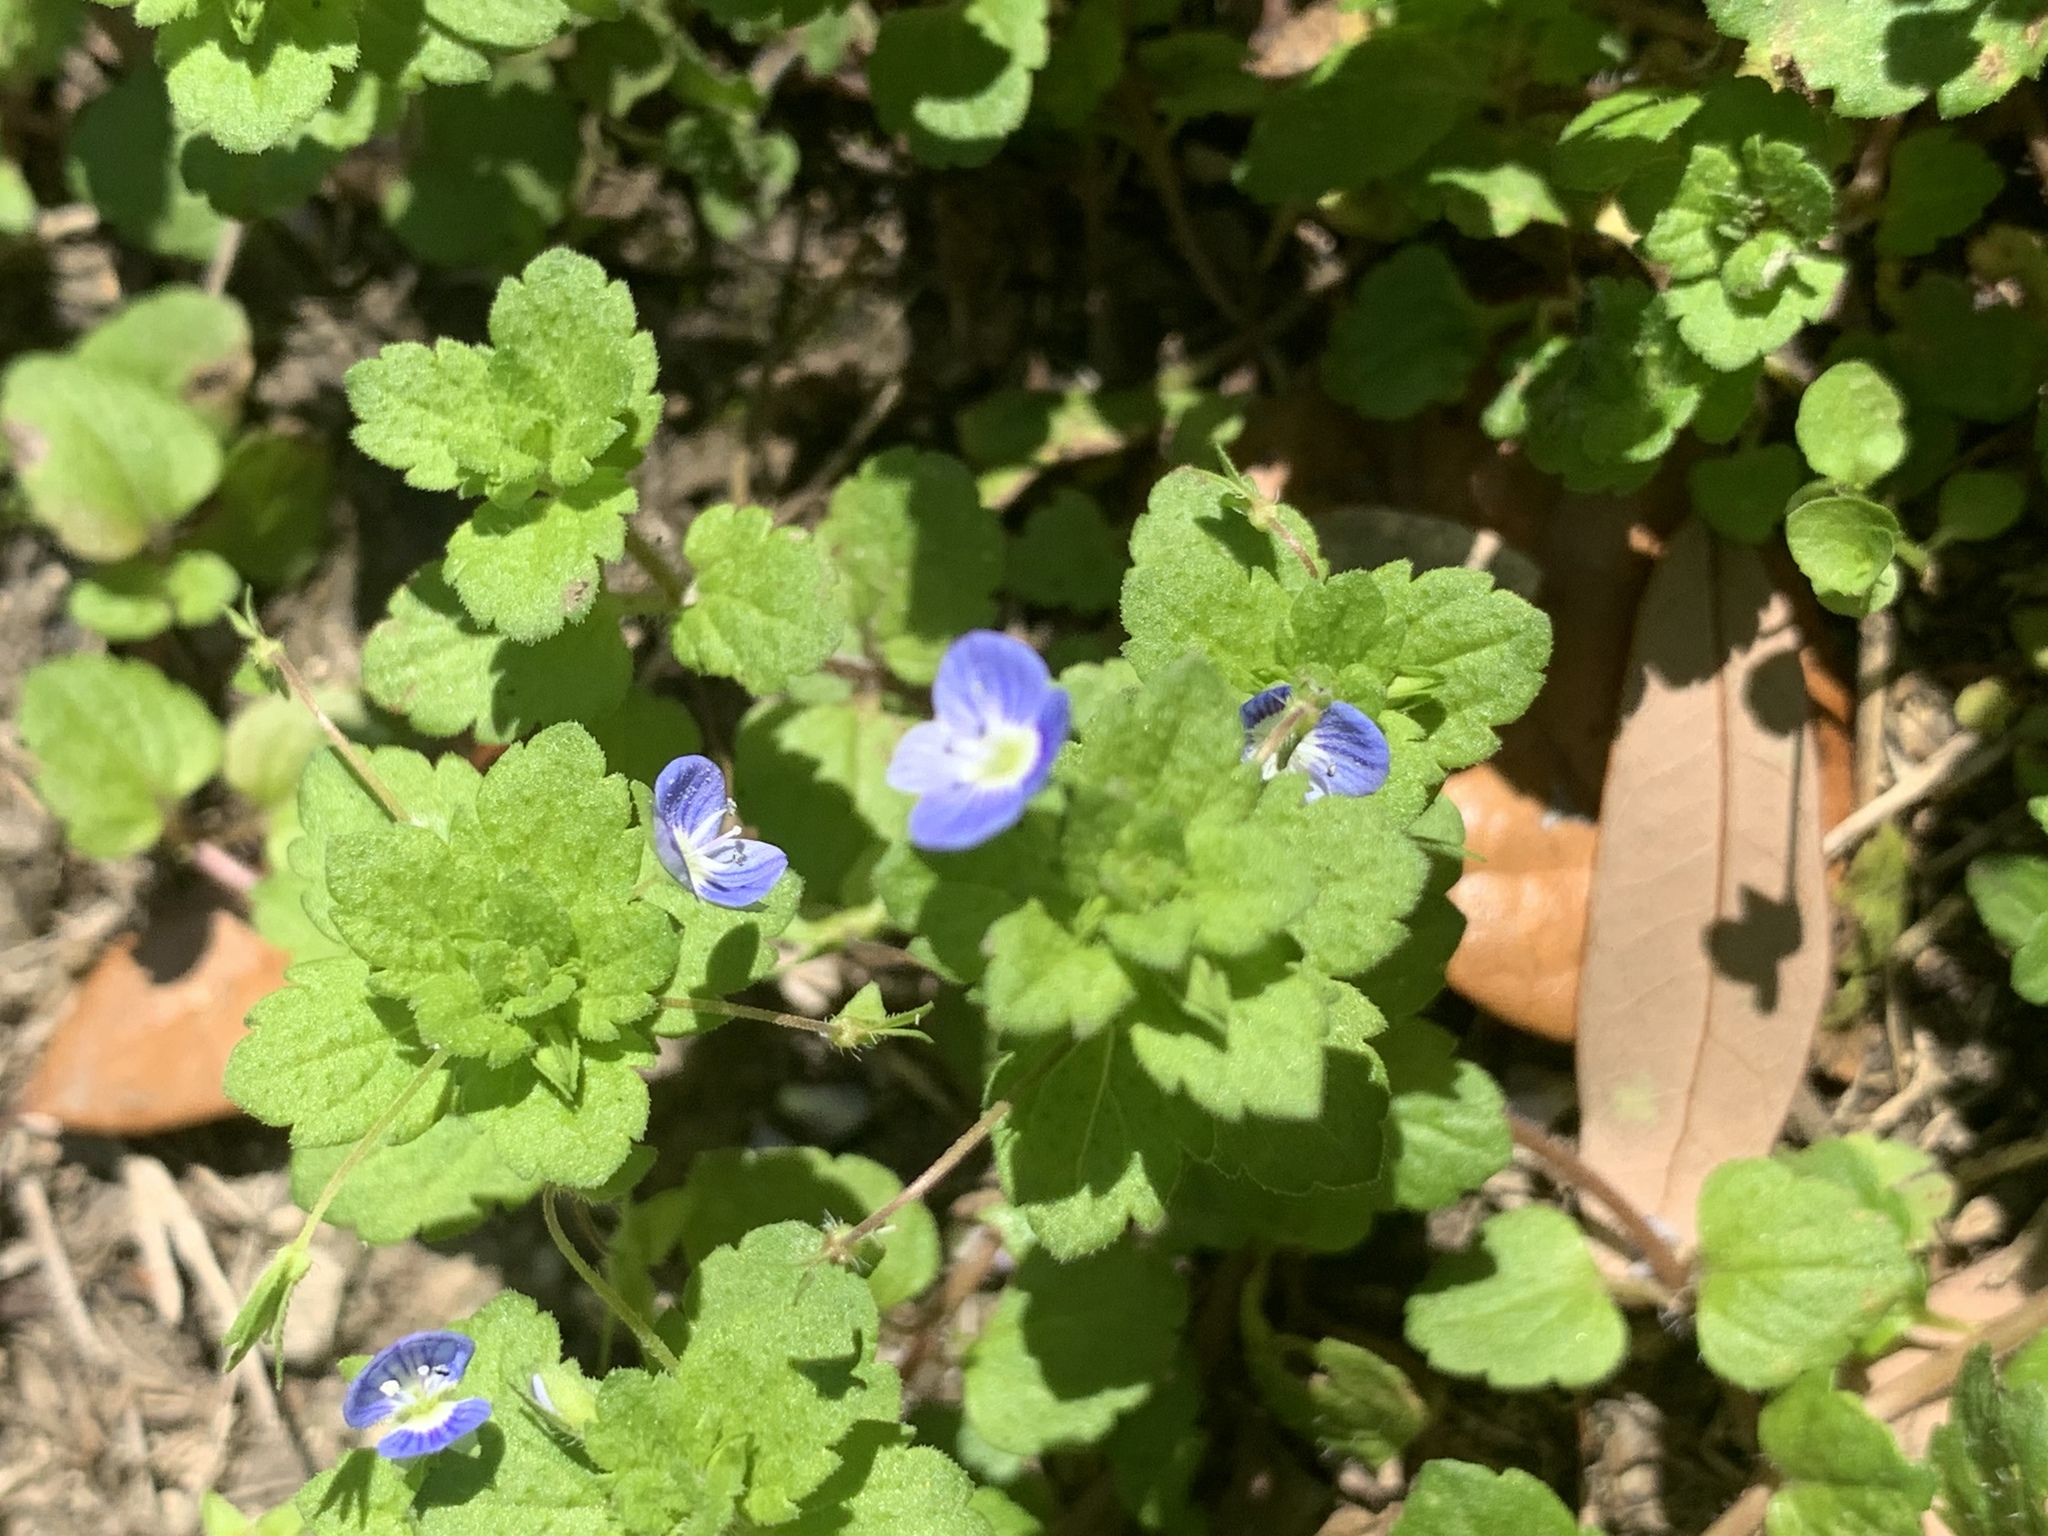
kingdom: Plantae
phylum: Tracheophyta
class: Magnoliopsida
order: Lamiales
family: Plantaginaceae
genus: Veronica
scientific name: Veronica persica
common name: Common field-speedwell
